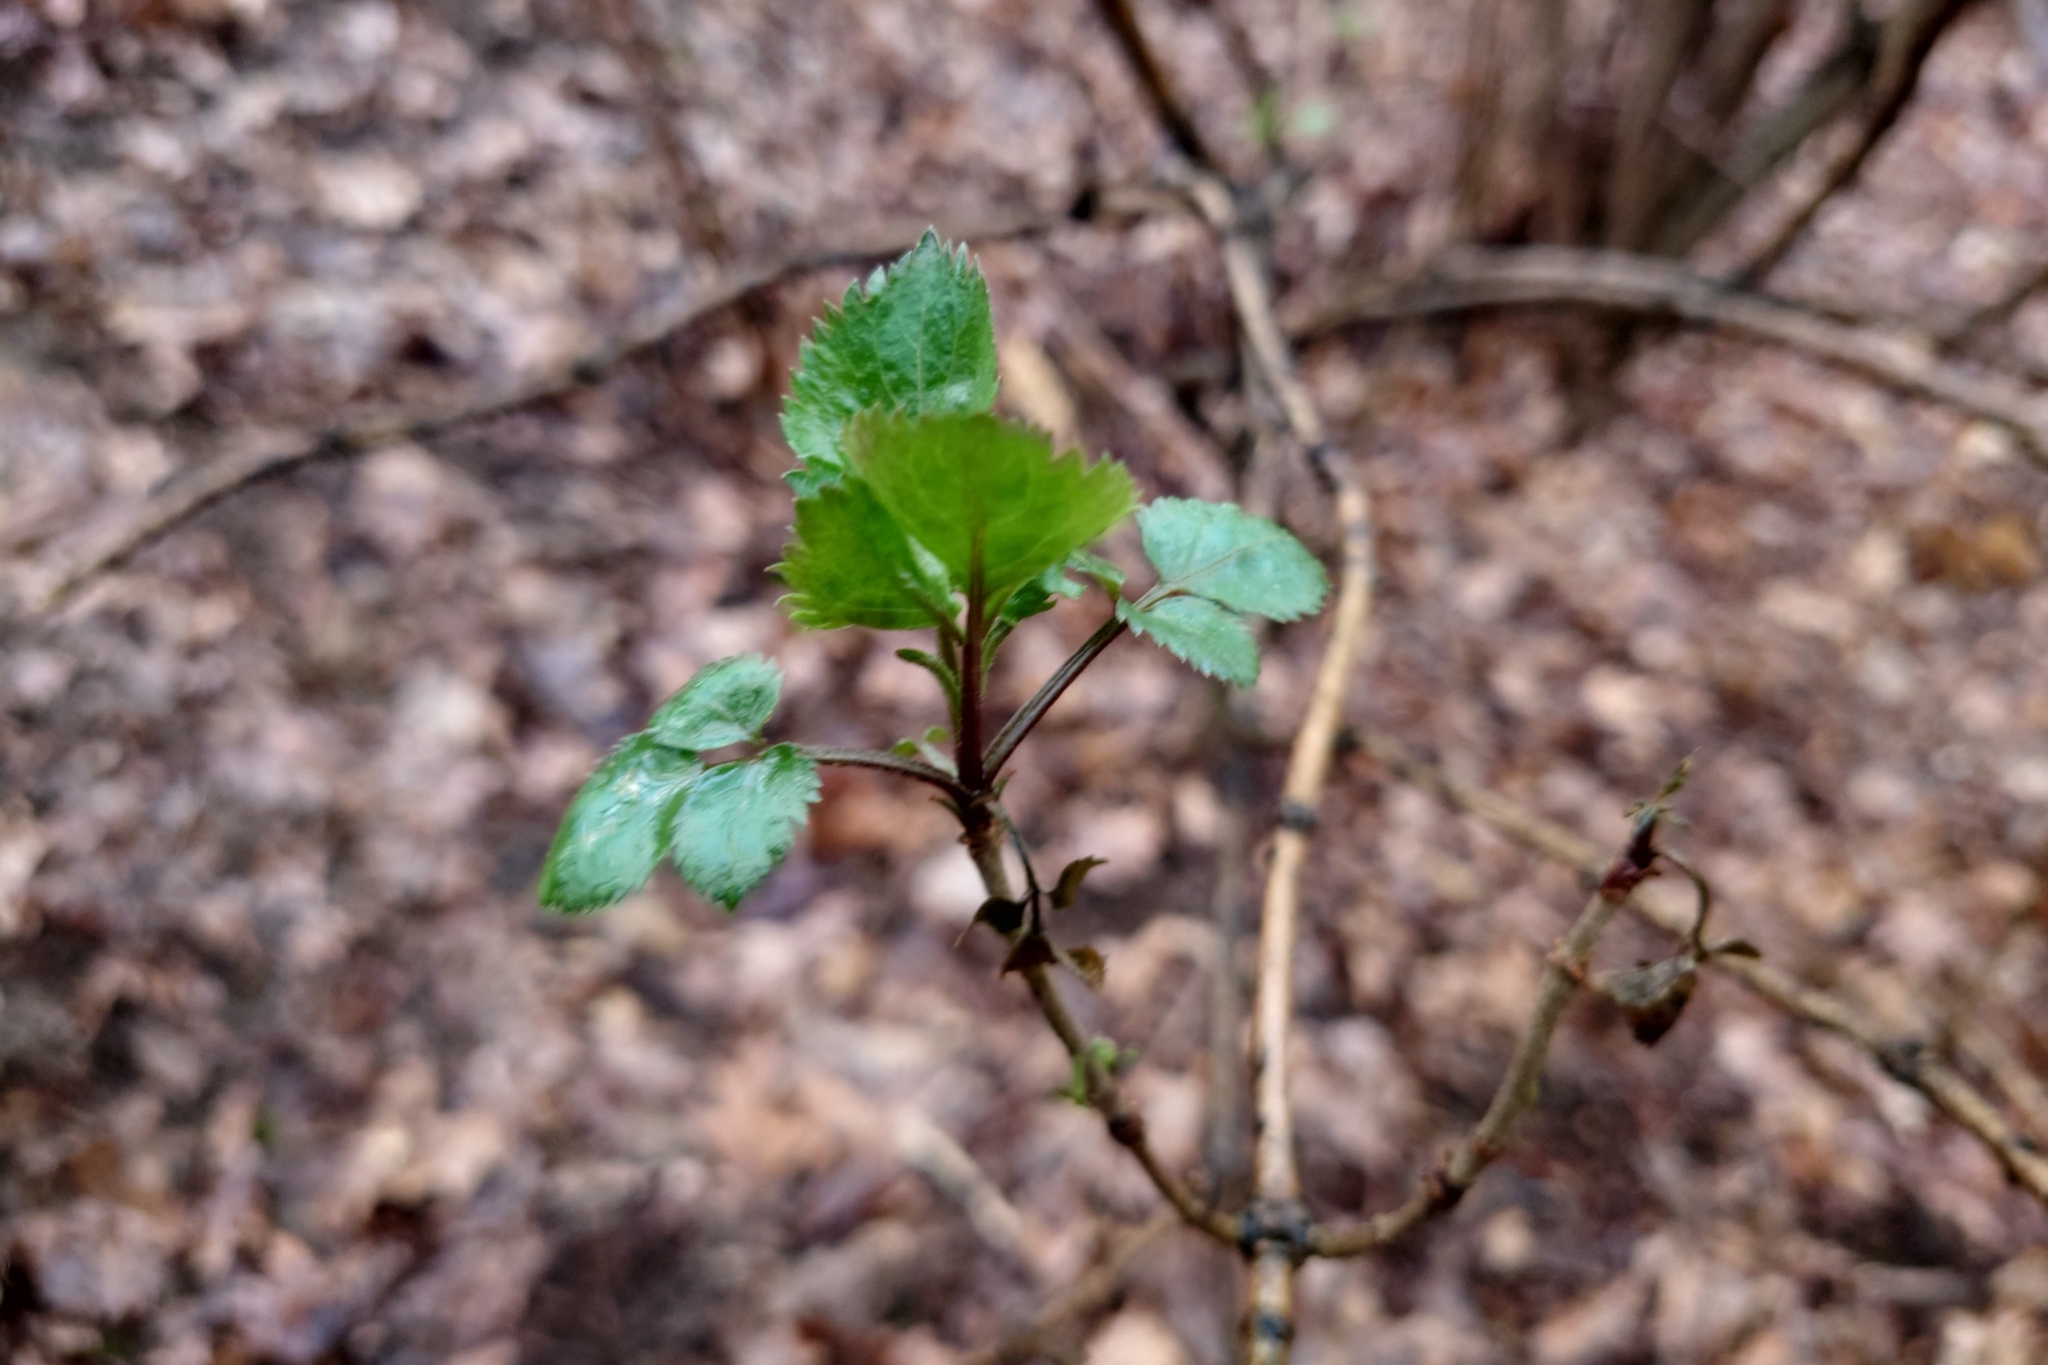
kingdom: Plantae
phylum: Tracheophyta
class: Magnoliopsida
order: Dipsacales
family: Viburnaceae
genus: Sambucus
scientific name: Sambucus nigra
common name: Elder
